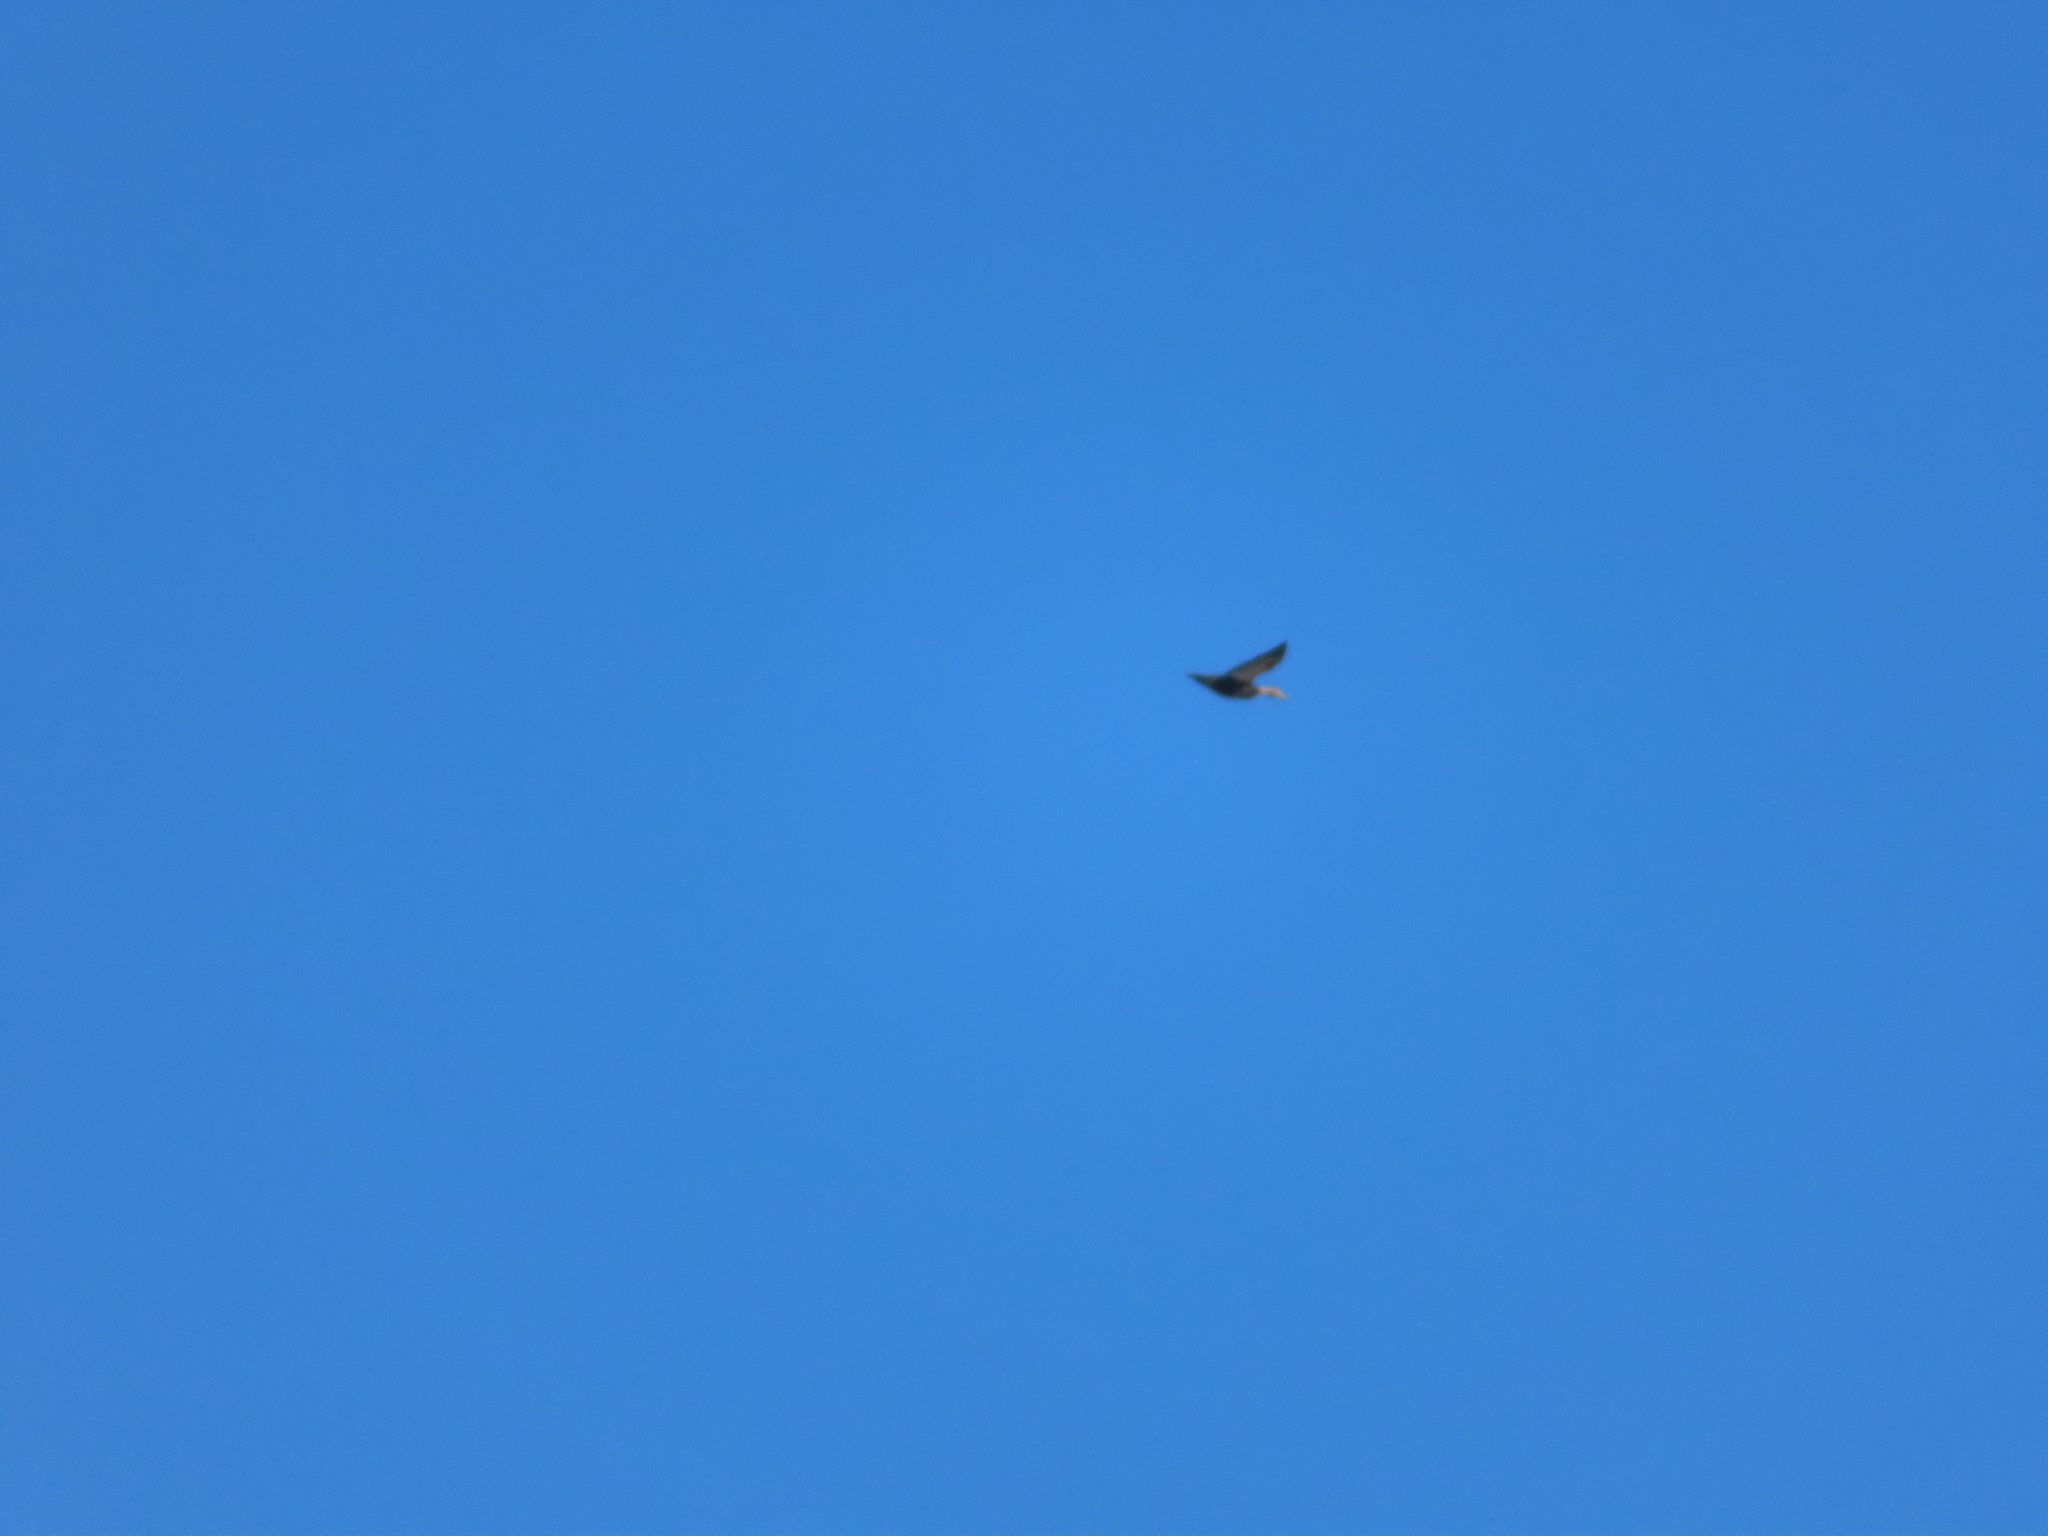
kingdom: Animalia
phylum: Chordata
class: Aves
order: Anseriformes
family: Anatidae
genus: Anas
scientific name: Anas rubripes
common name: American black duck
